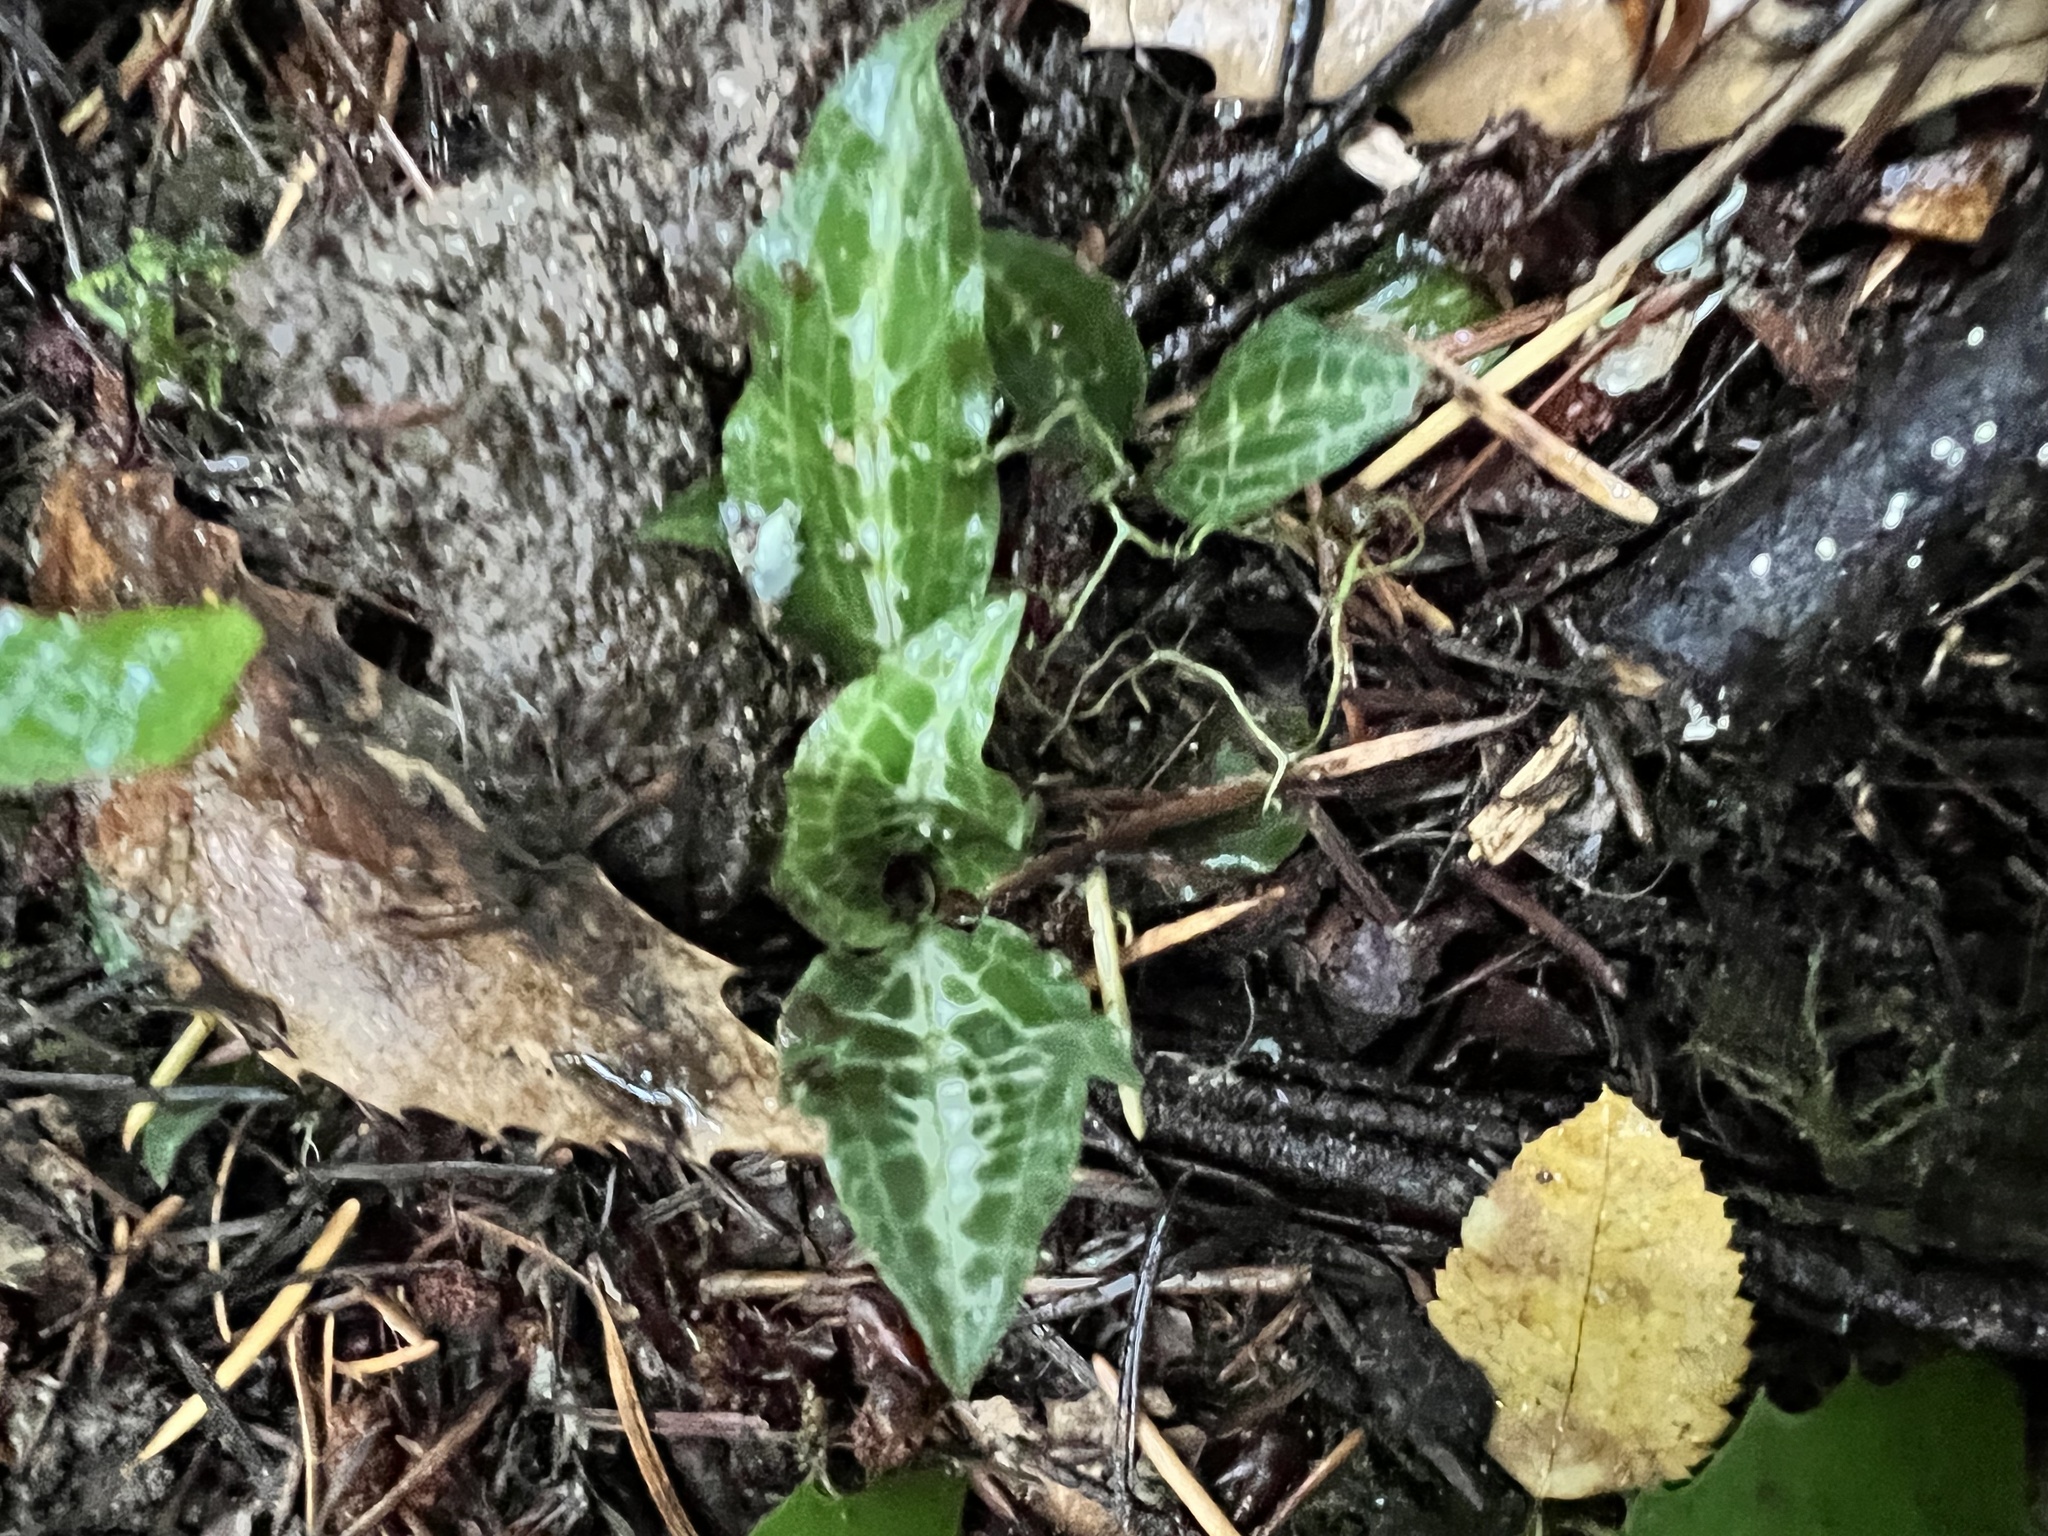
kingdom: Plantae
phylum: Tracheophyta
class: Liliopsida
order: Asparagales
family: Orchidaceae
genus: Goodyera
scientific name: Goodyera oblongifolia
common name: Giant rattlesnake-plantain
